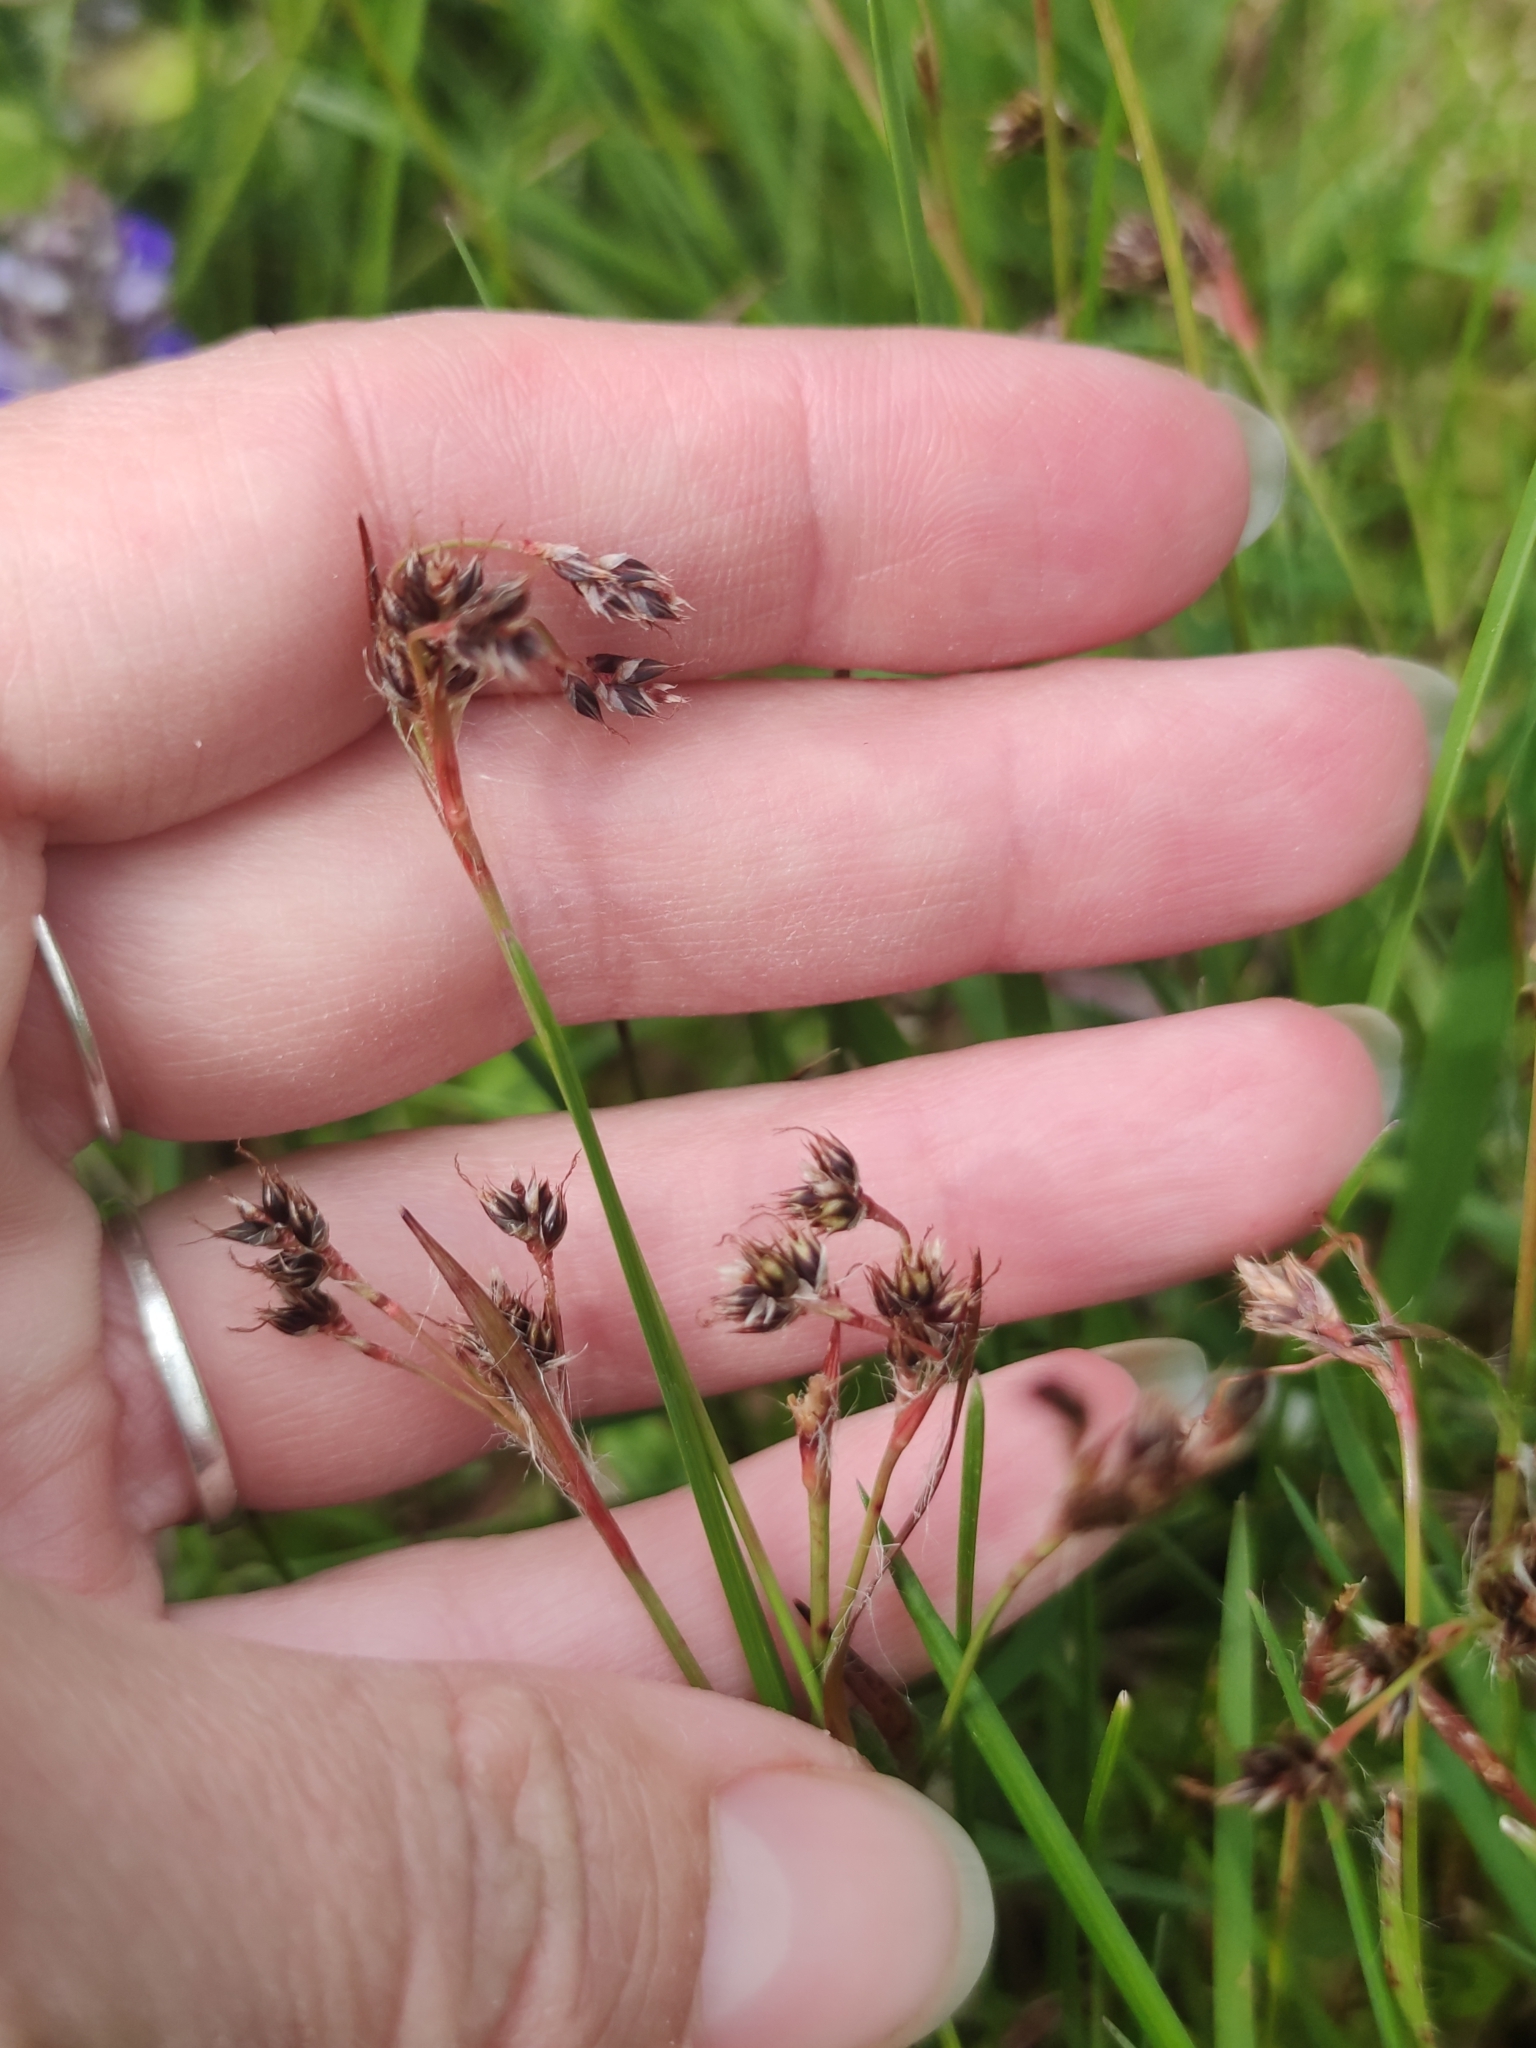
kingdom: Plantae
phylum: Tracheophyta
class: Liliopsida
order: Poales
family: Juncaceae
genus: Luzula
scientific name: Luzula campestris
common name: Field wood-rush
